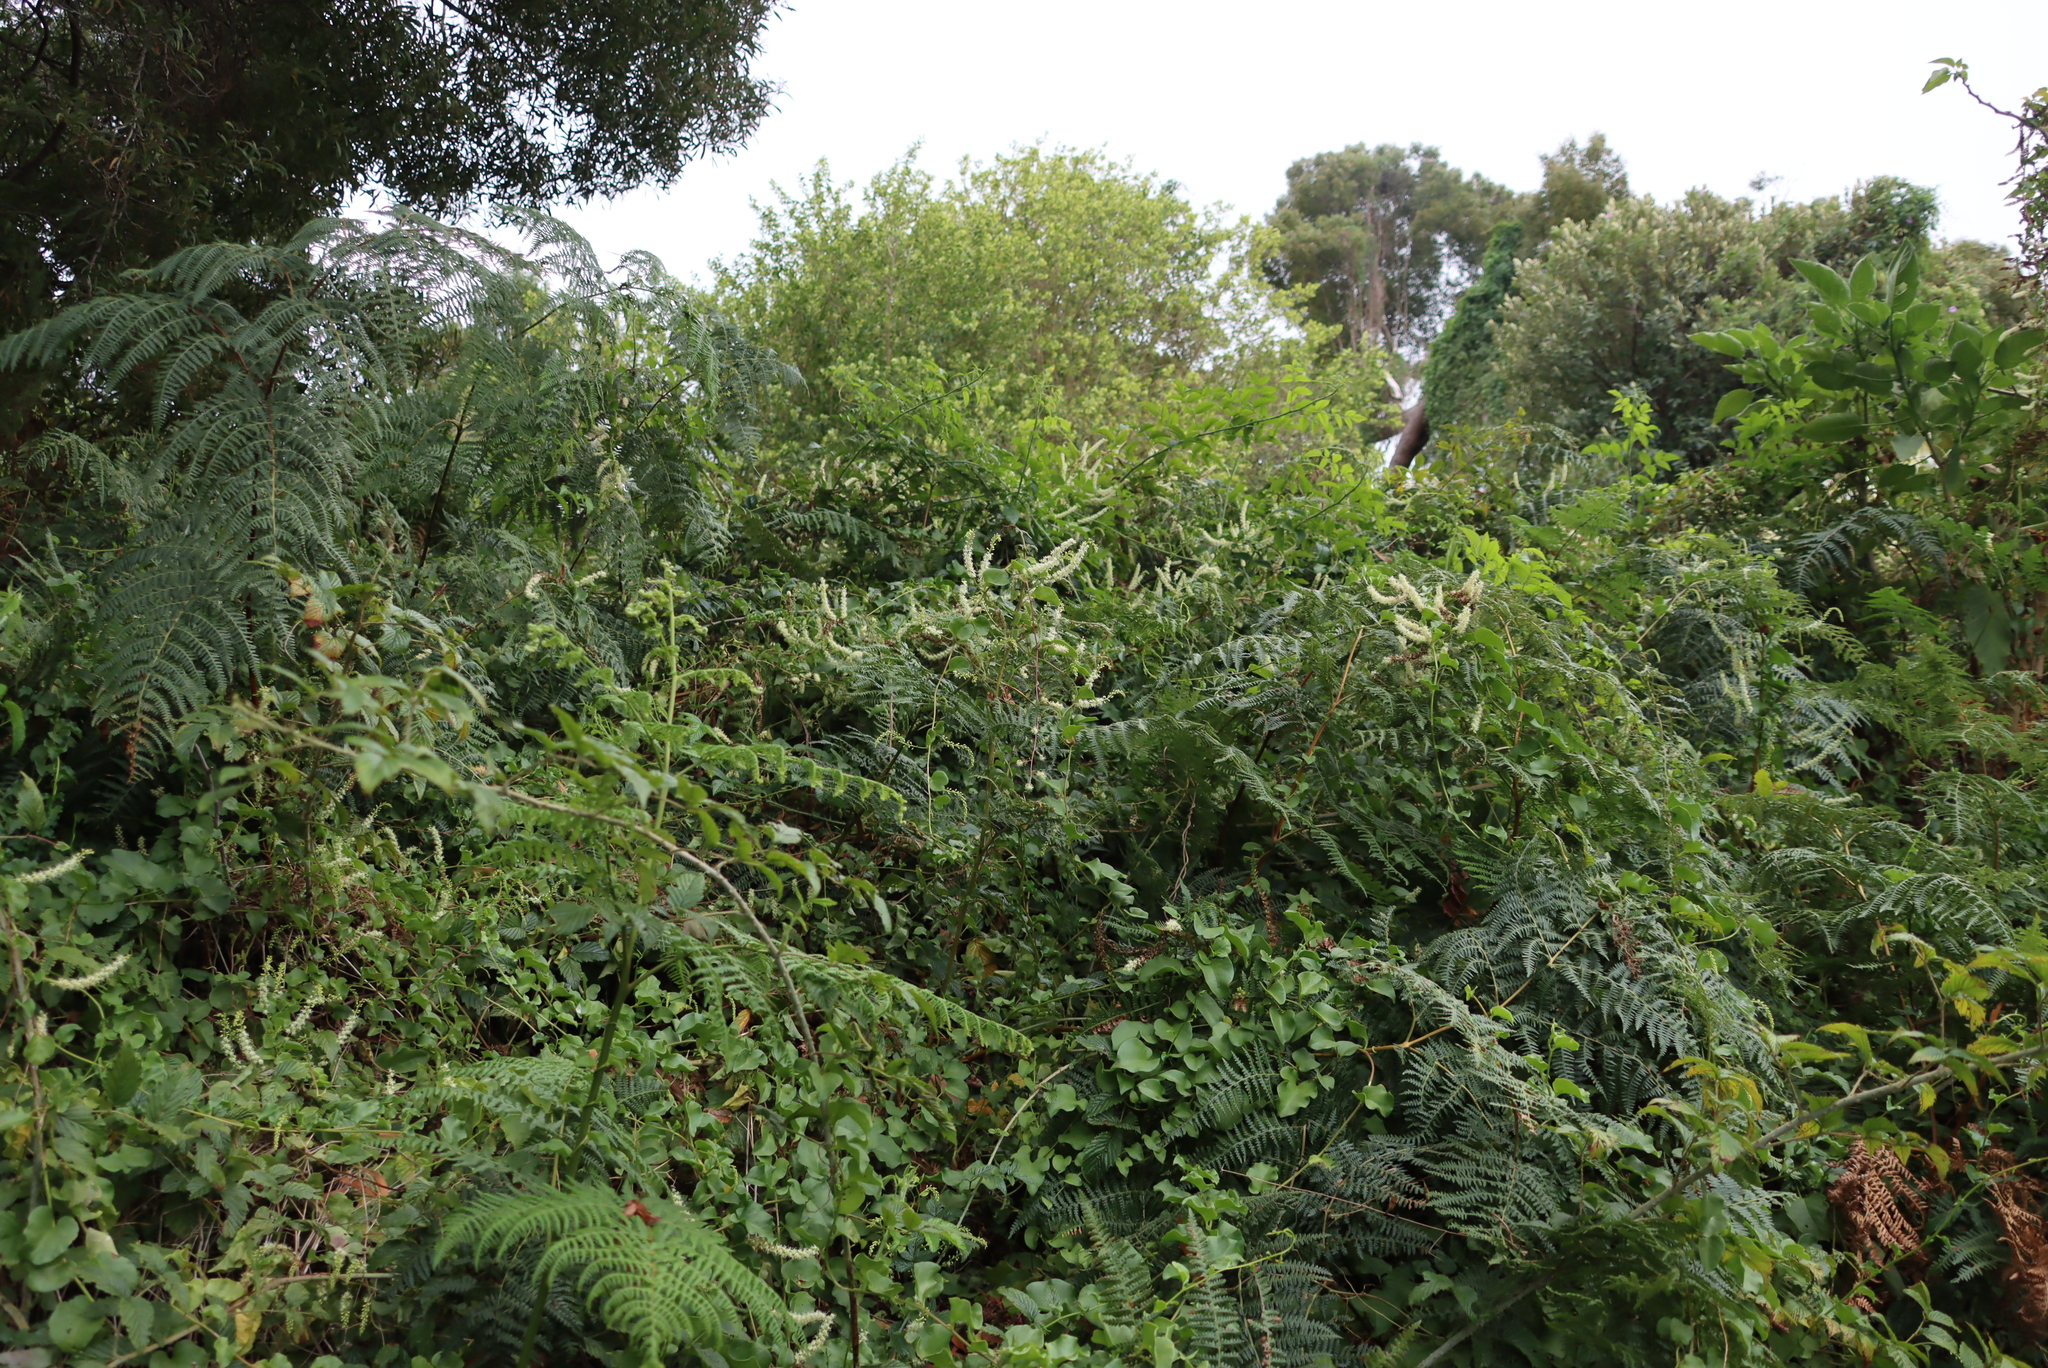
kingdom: Plantae
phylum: Tracheophyta
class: Magnoliopsida
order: Caryophyllales
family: Basellaceae
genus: Anredera
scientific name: Anredera cordifolia
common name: Heartleaf madeiravine
